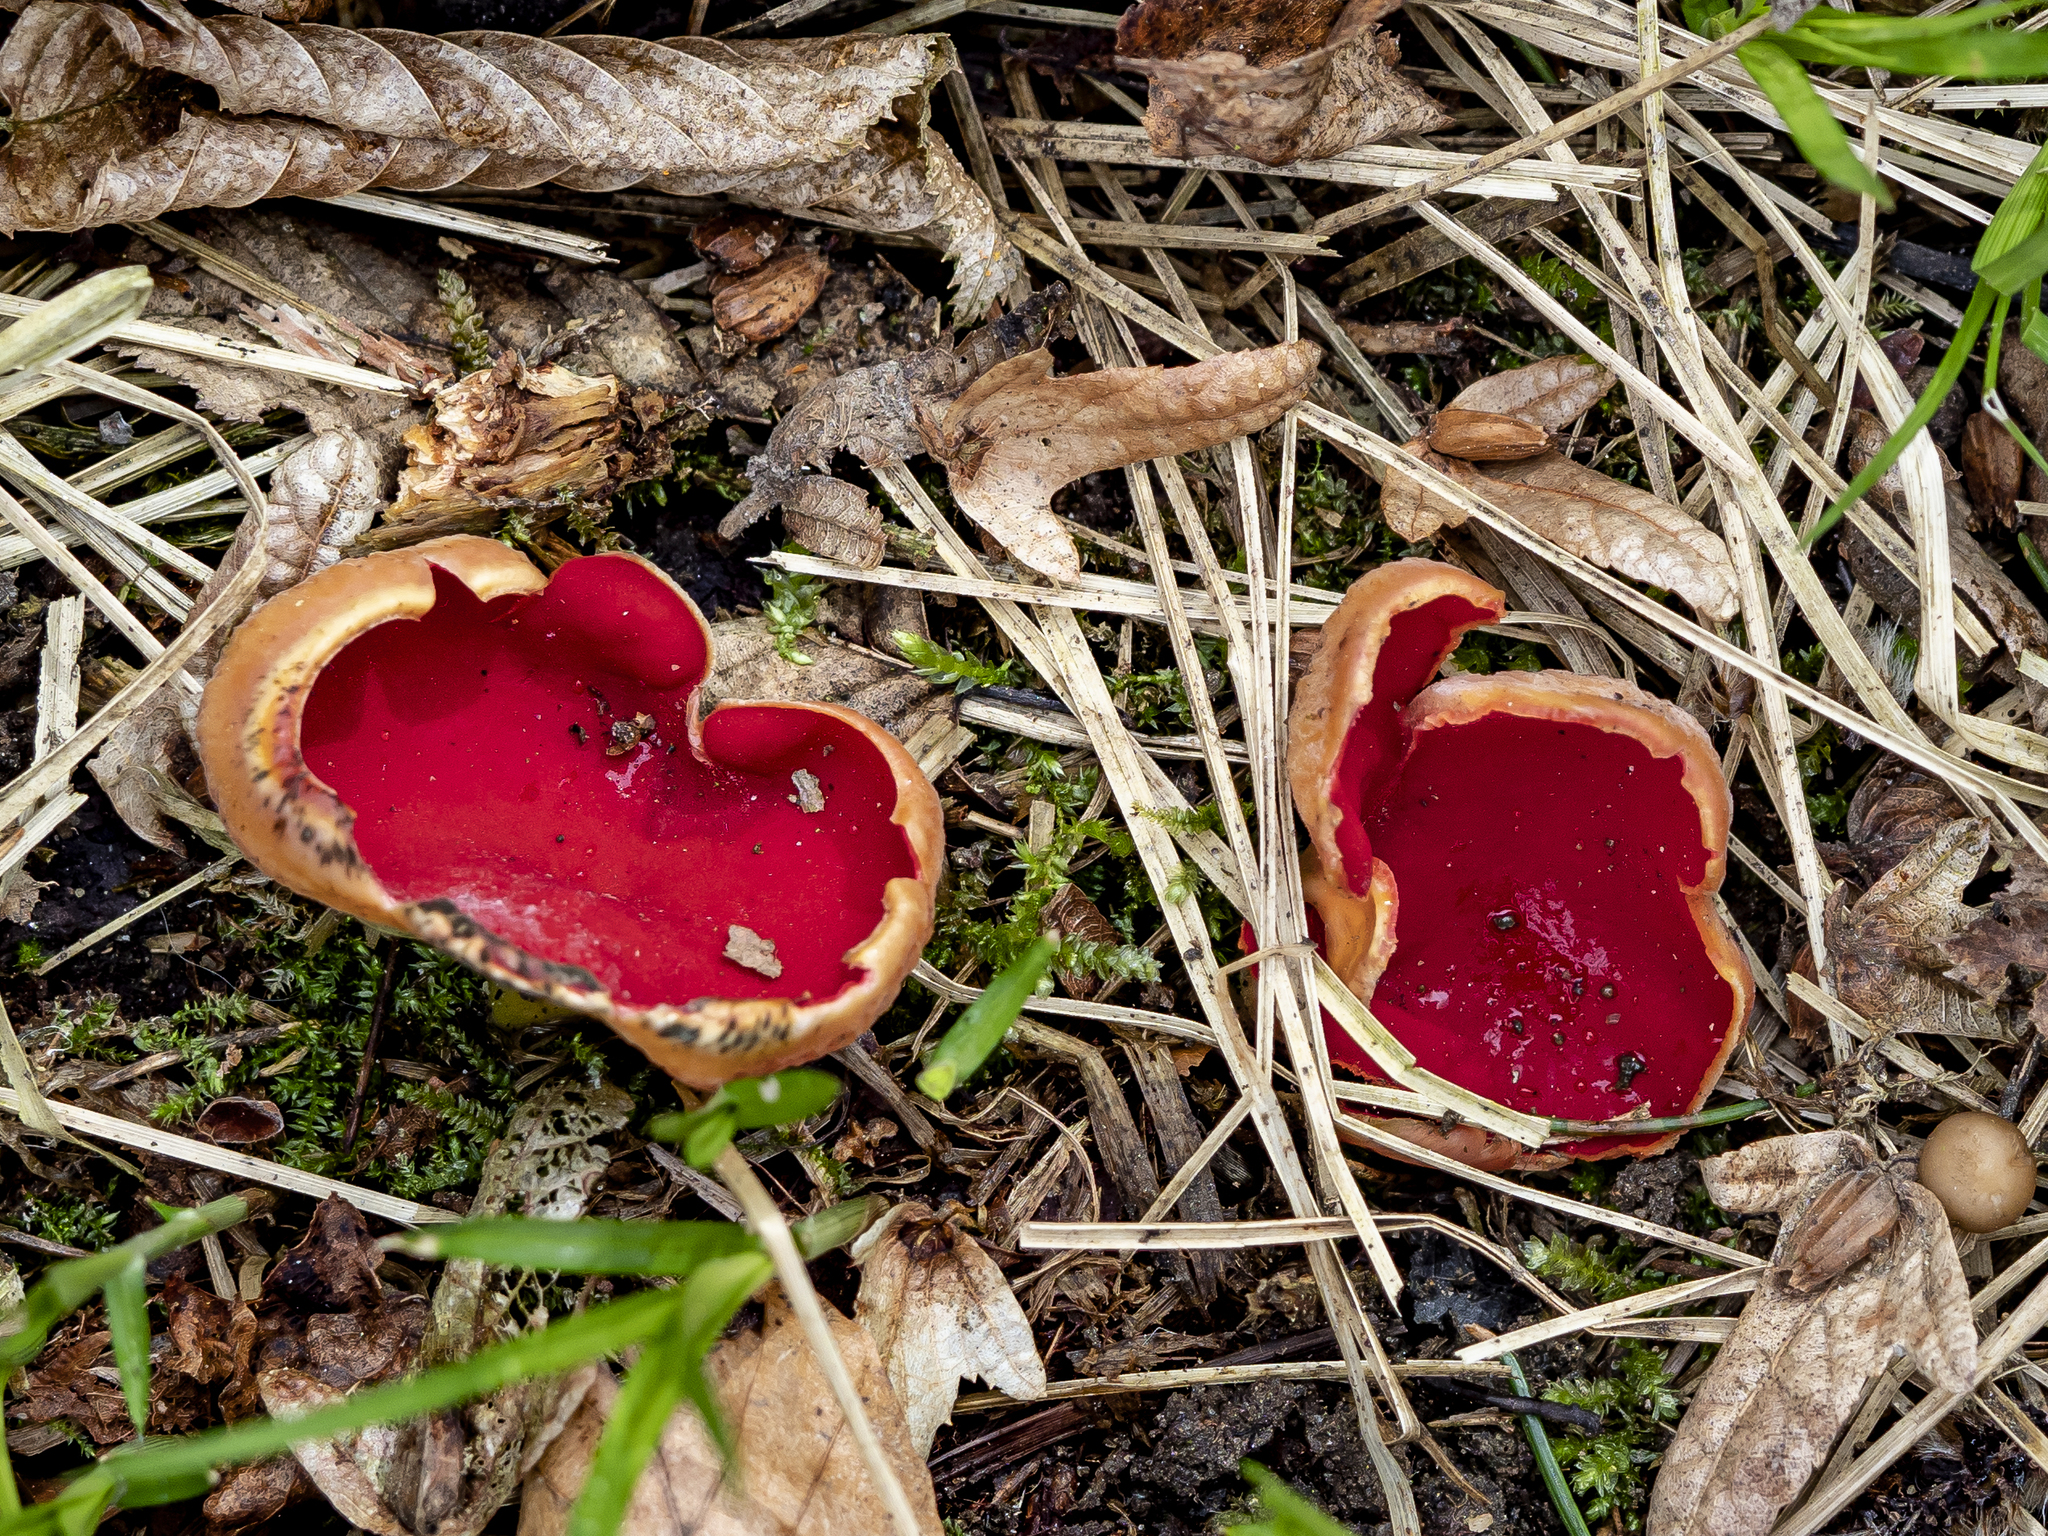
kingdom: Fungi
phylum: Ascomycota
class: Pezizomycetes
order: Pezizales
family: Sarcoscyphaceae
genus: Sarcoscypha
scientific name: Sarcoscypha austriaca
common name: Scarlet elfcup
